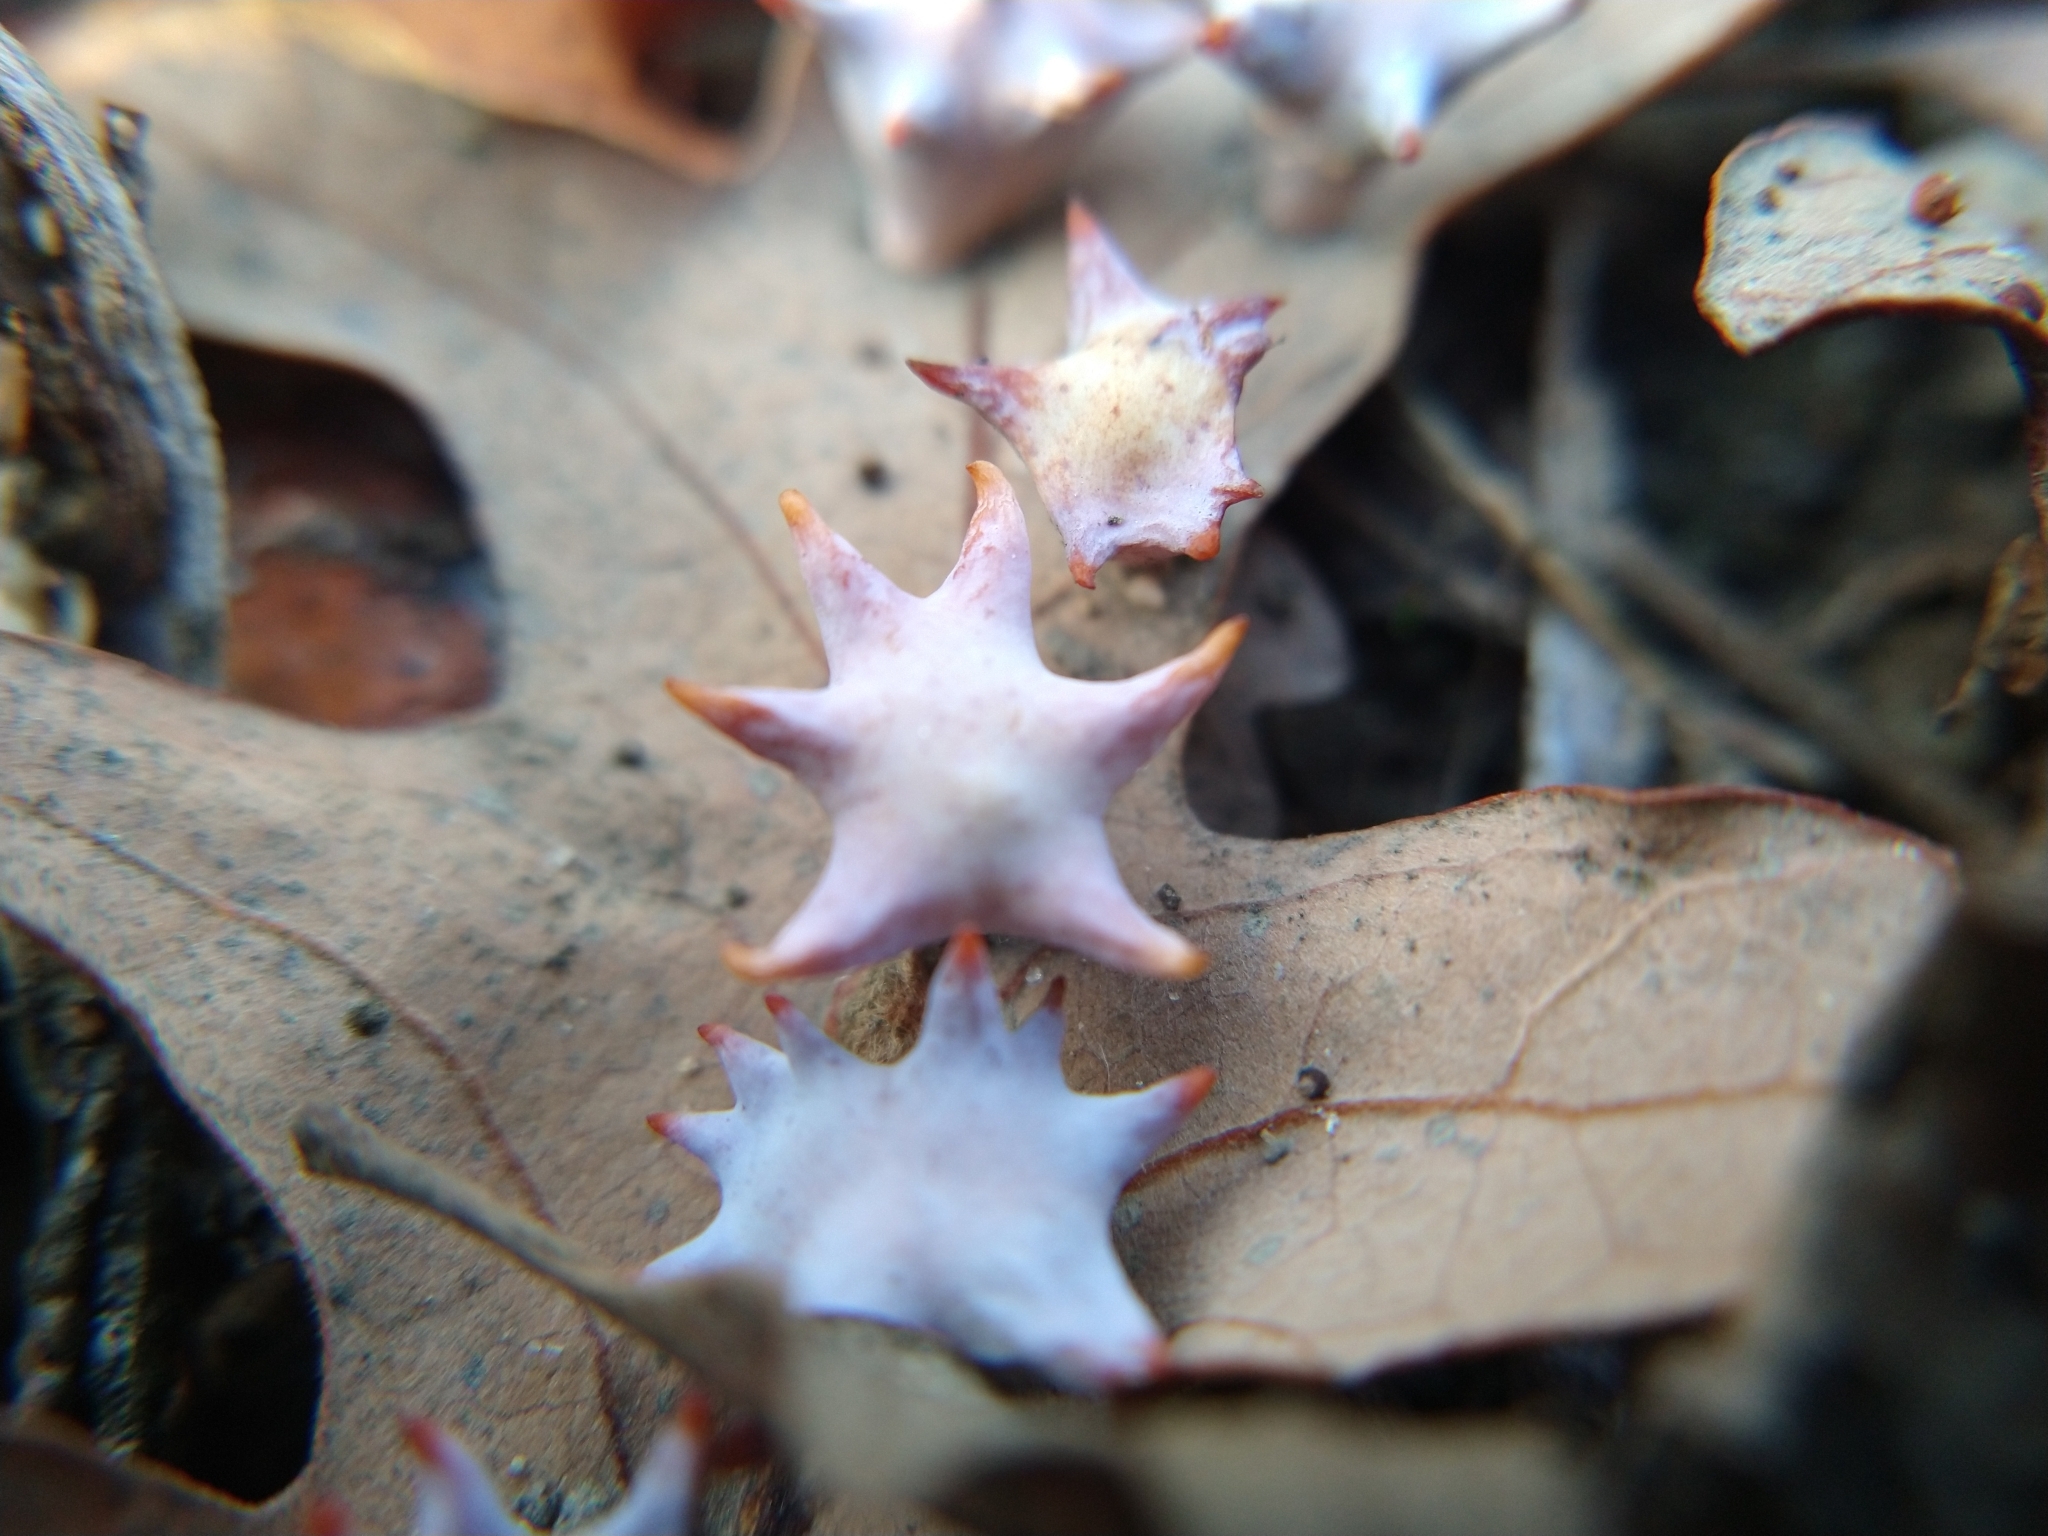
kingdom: Animalia
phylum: Arthropoda
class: Insecta
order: Hymenoptera
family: Cynipidae
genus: Cynips
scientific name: Cynips douglasi
